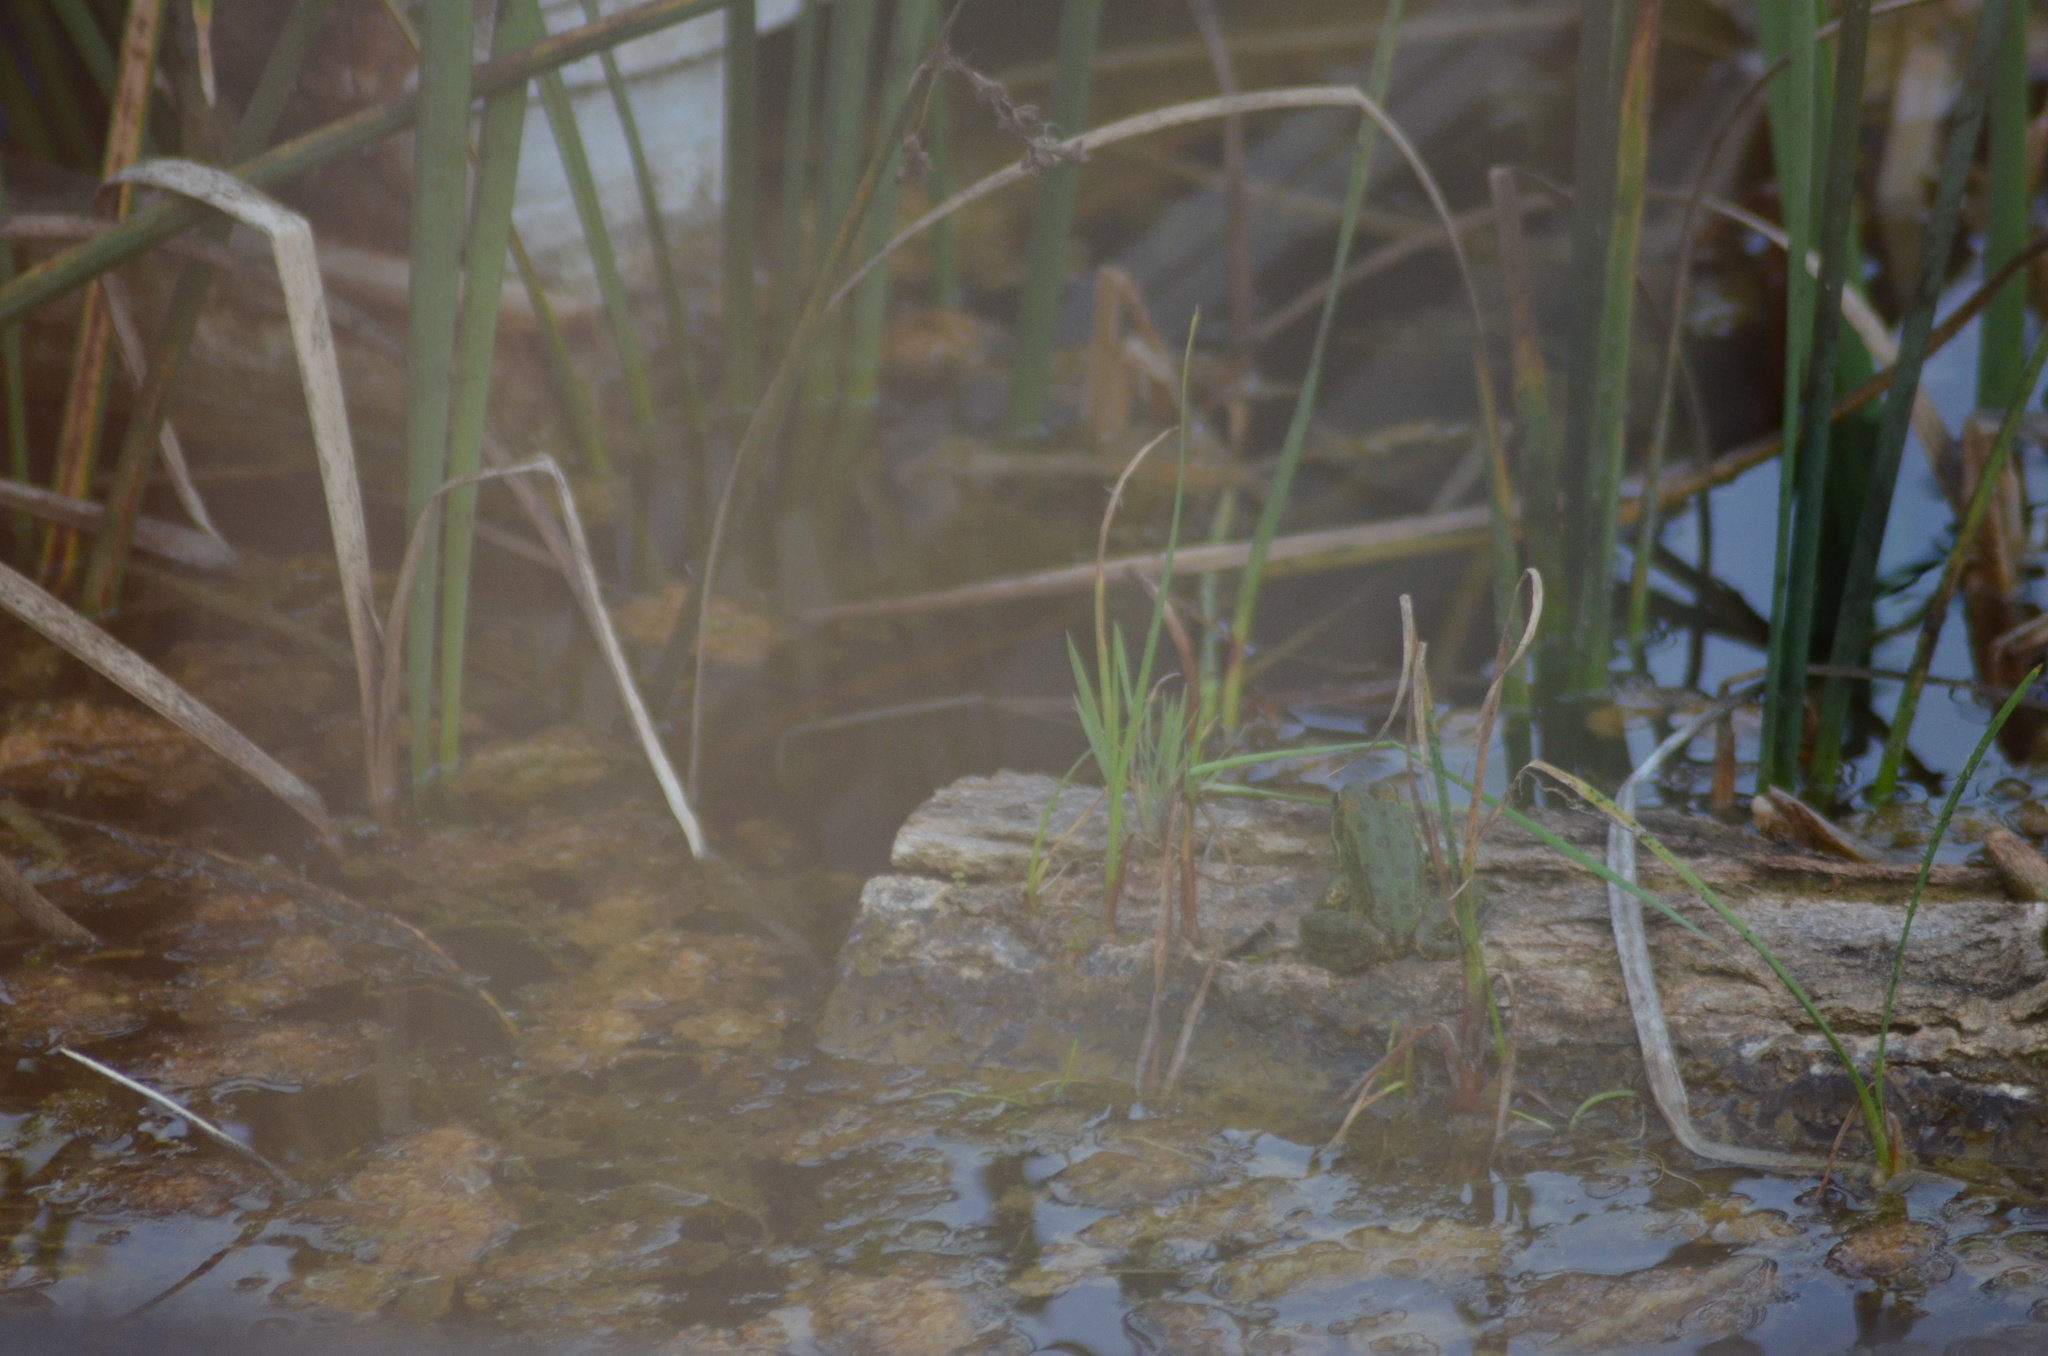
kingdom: Animalia
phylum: Chordata
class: Amphibia
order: Anura
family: Ranidae
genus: Pelophylax
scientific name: Pelophylax perezi
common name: Perez's frog
